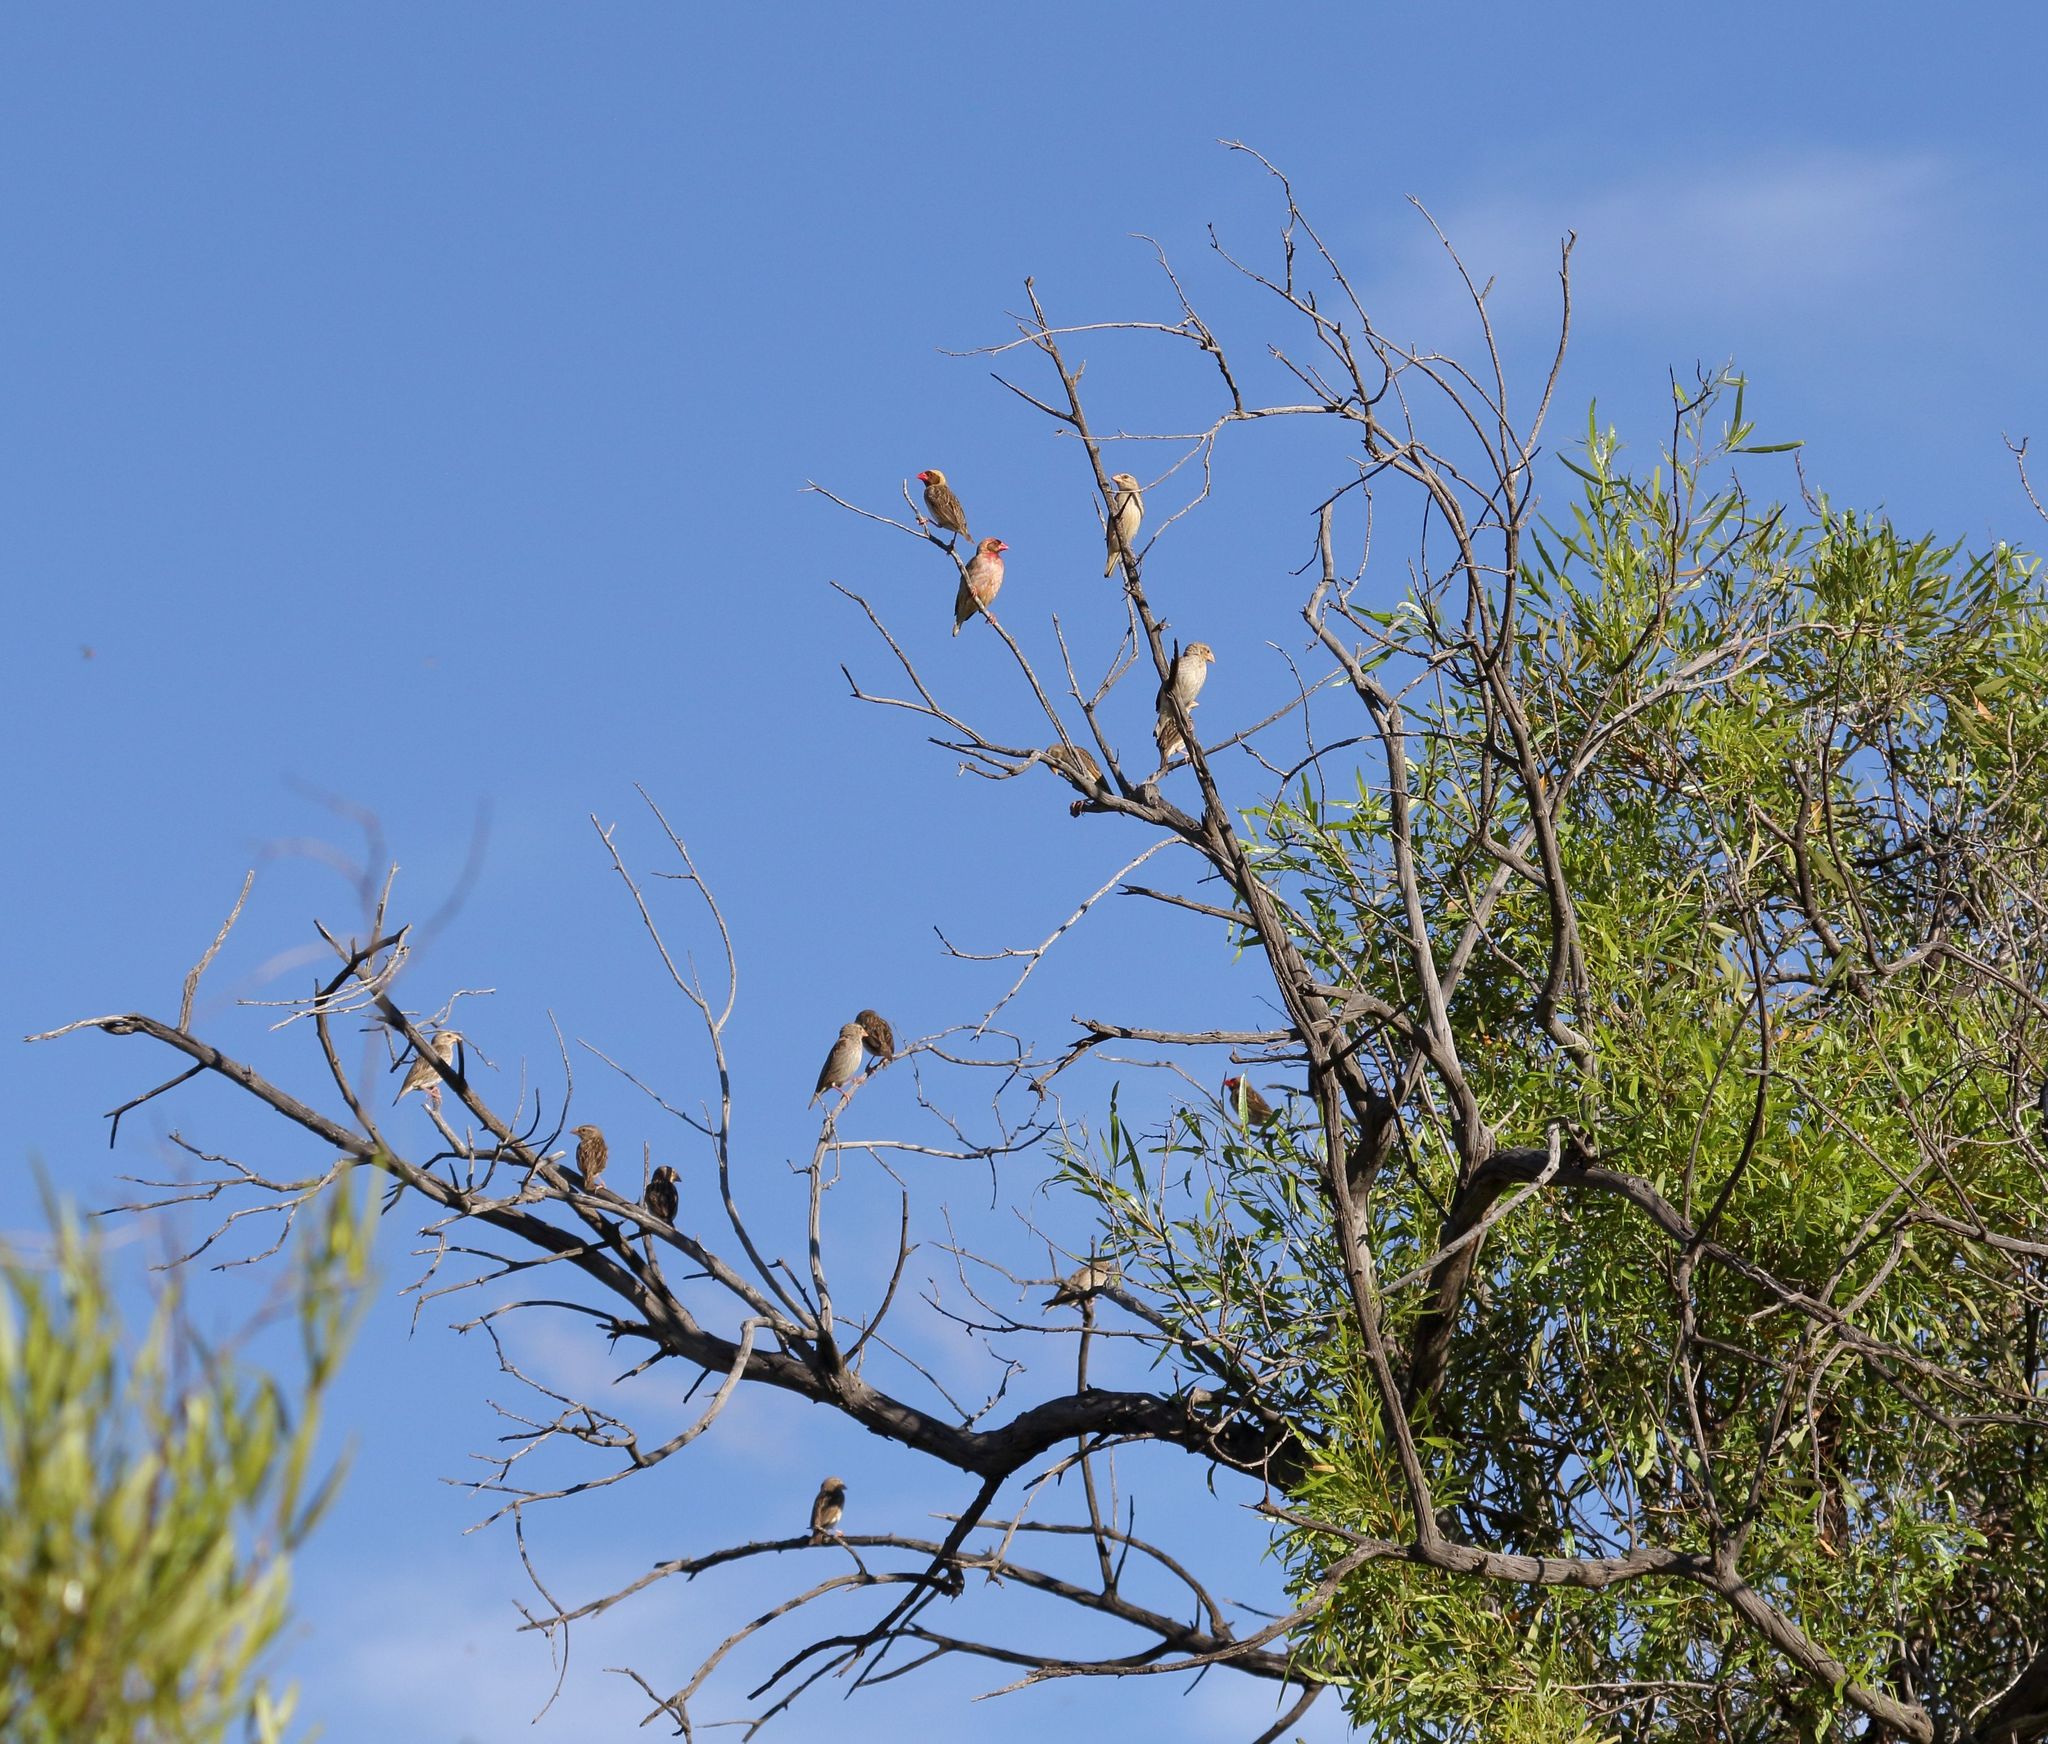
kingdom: Animalia
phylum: Chordata
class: Aves
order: Passeriformes
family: Ploceidae
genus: Quelea
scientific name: Quelea quelea
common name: Red-billed quelea
